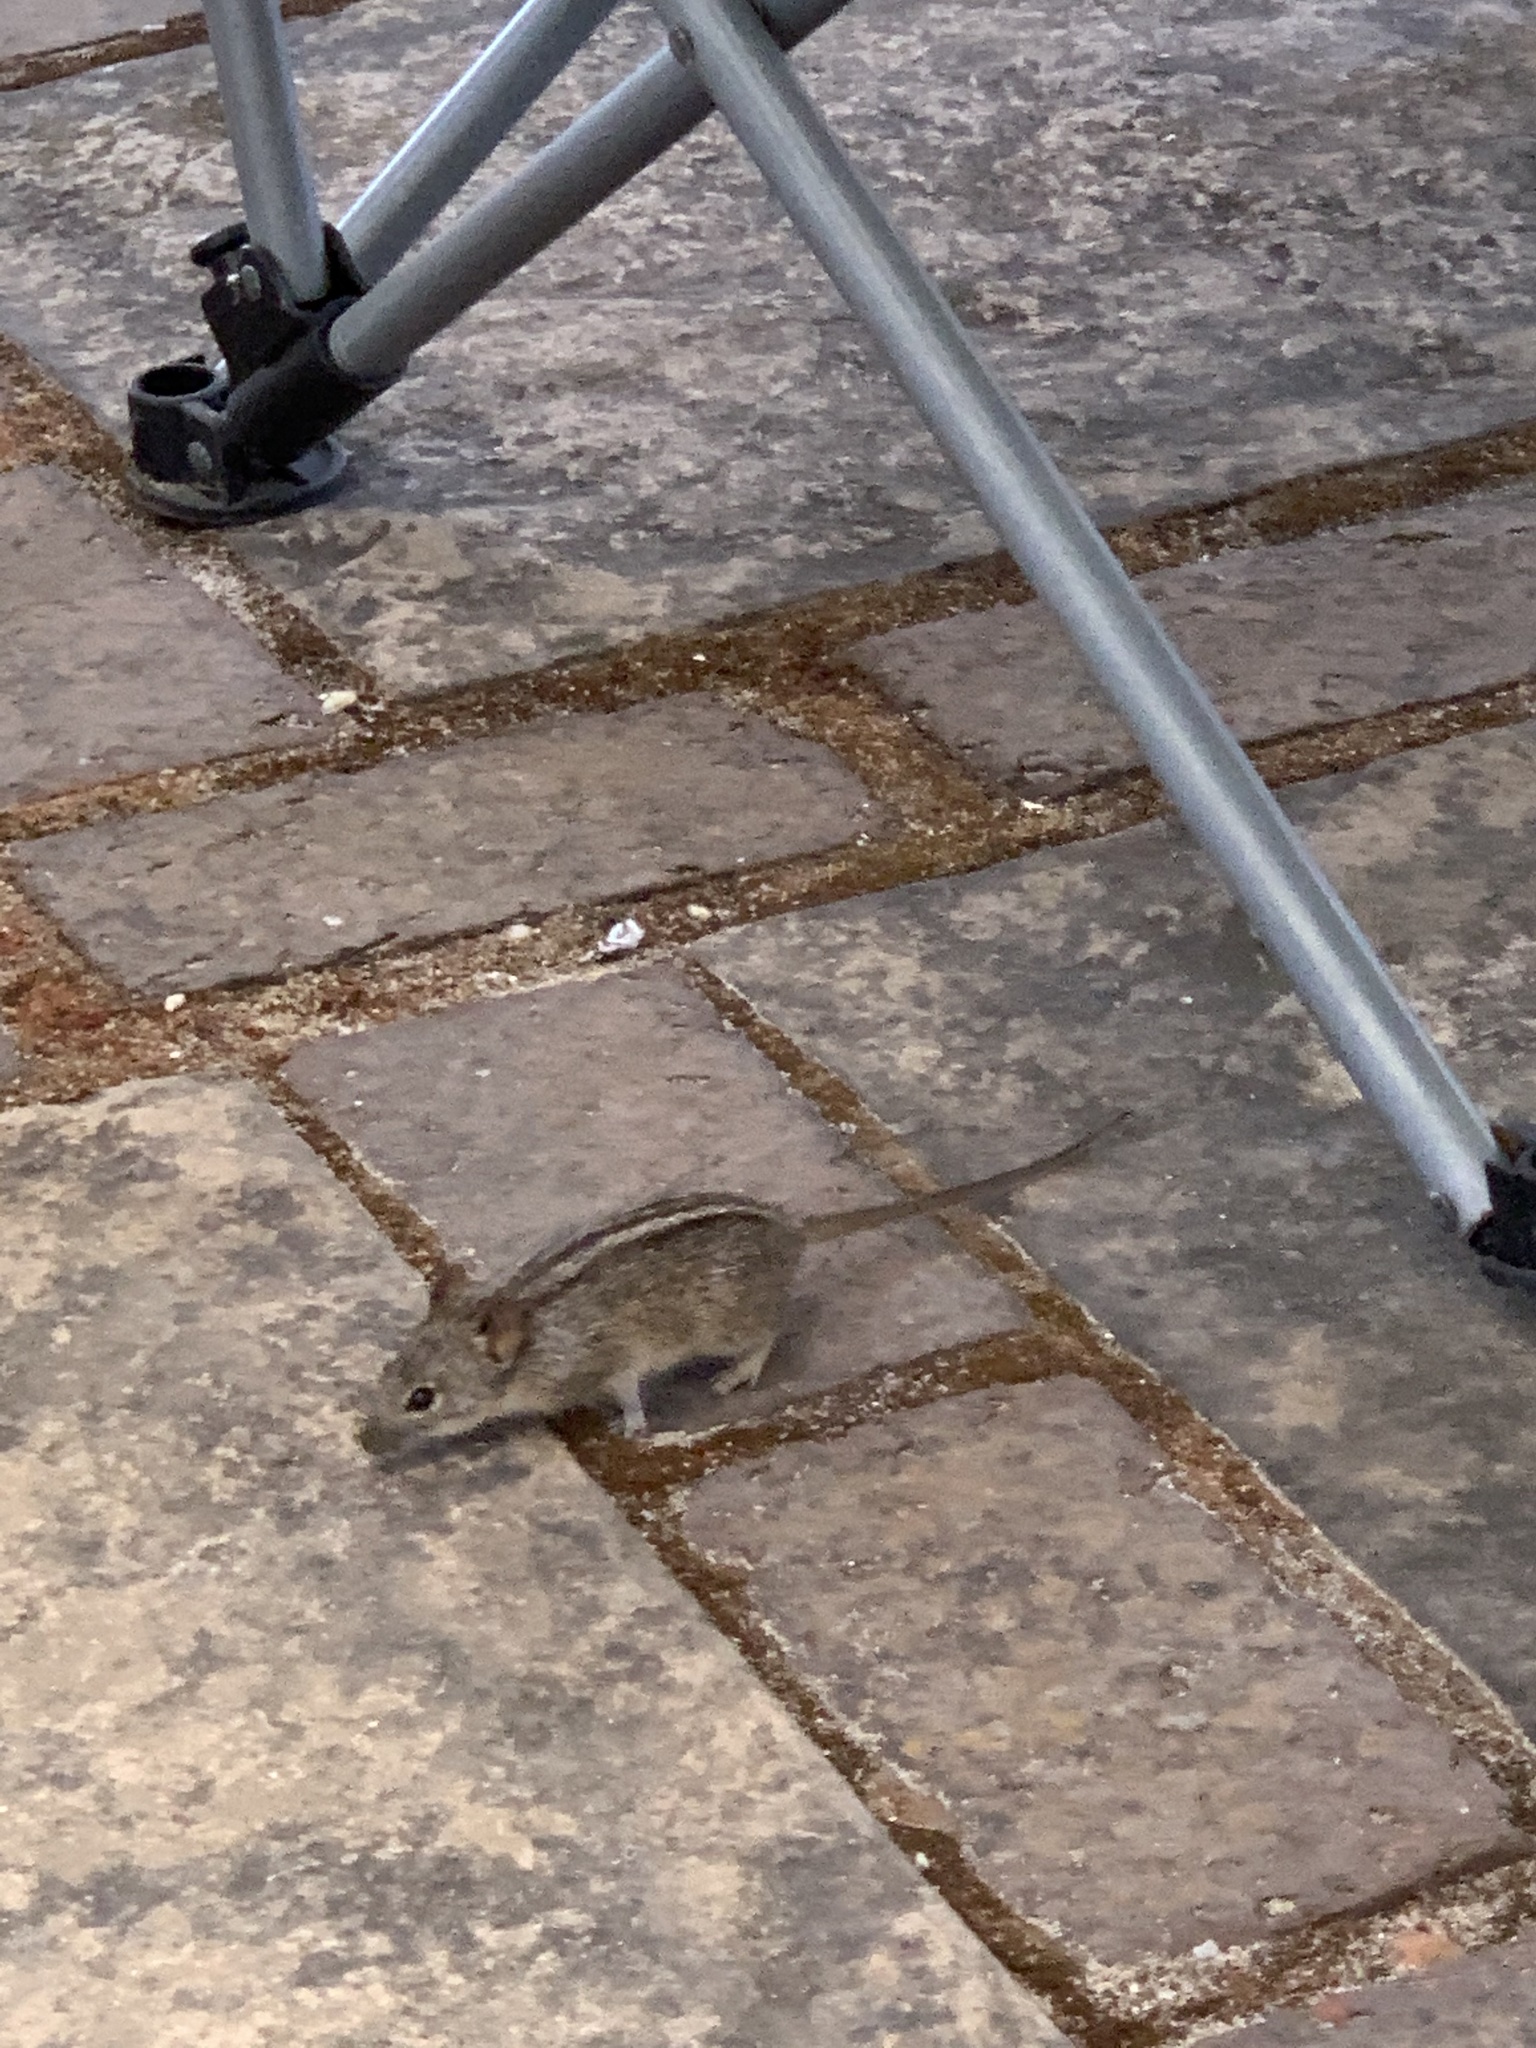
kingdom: Animalia
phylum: Chordata
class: Mammalia
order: Rodentia
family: Muridae
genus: Rhabdomys
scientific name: Rhabdomys pumilio
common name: Xeric four-striped grass rat
